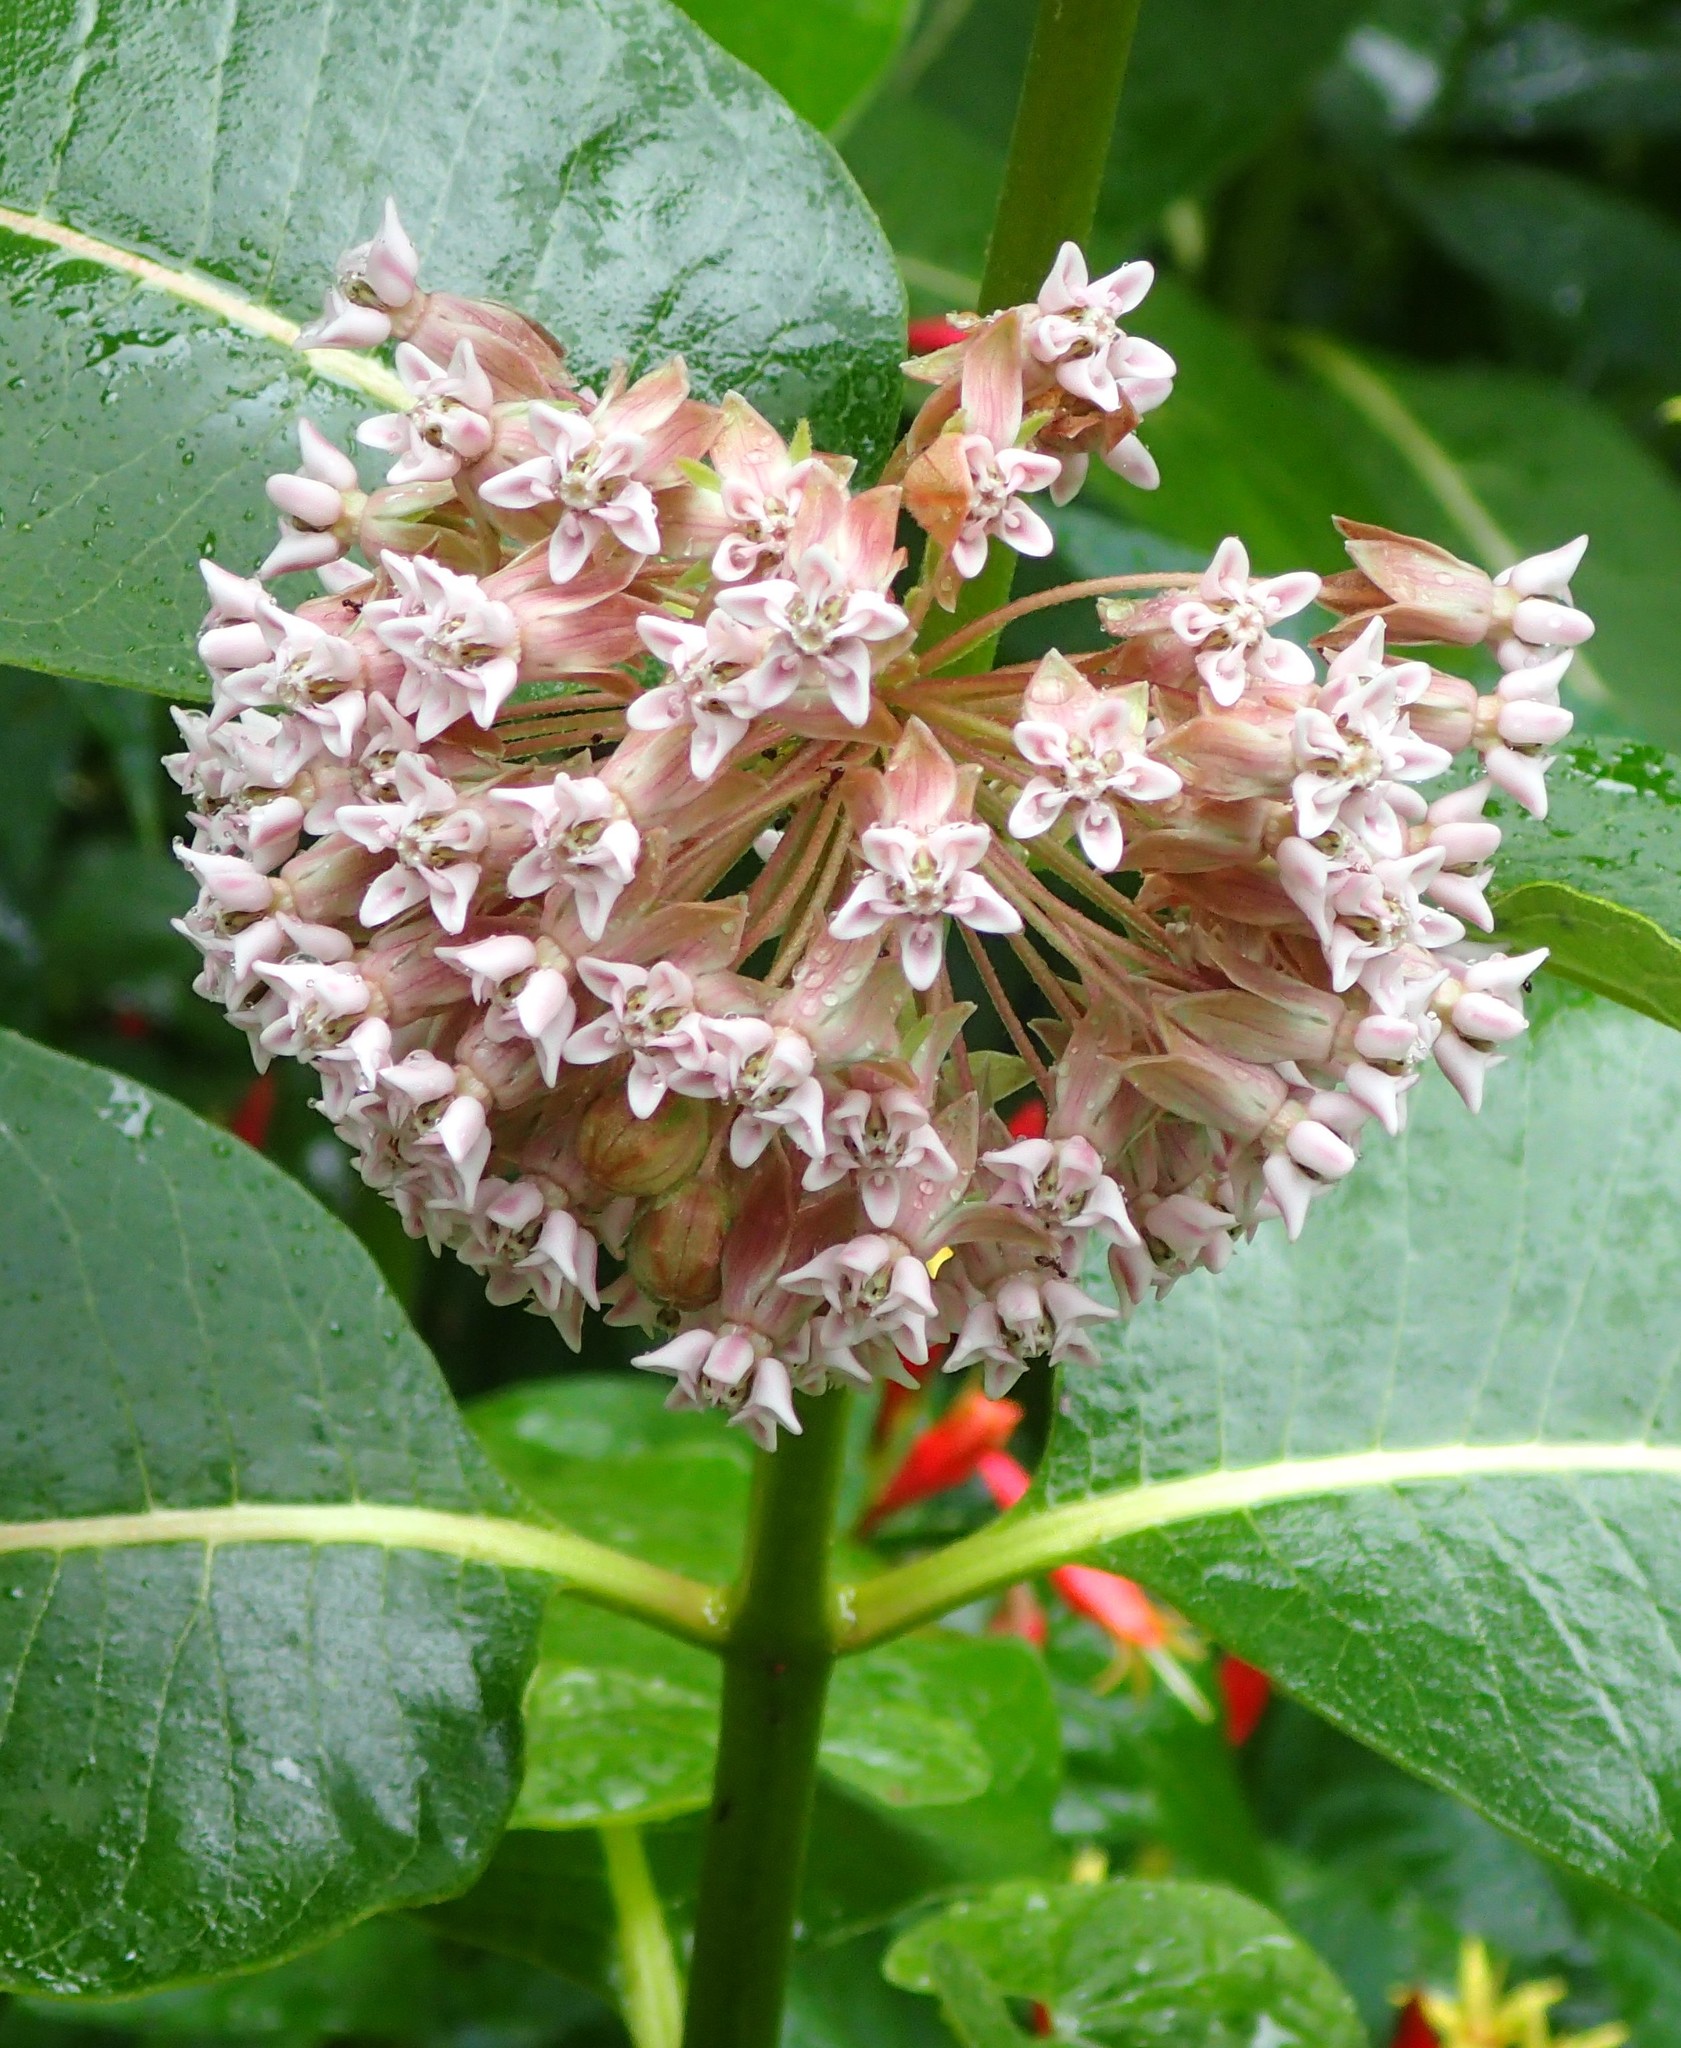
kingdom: Plantae
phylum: Tracheophyta
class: Magnoliopsida
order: Gentianales
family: Apocynaceae
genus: Asclepias
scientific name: Asclepias syriaca
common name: Common milkweed
